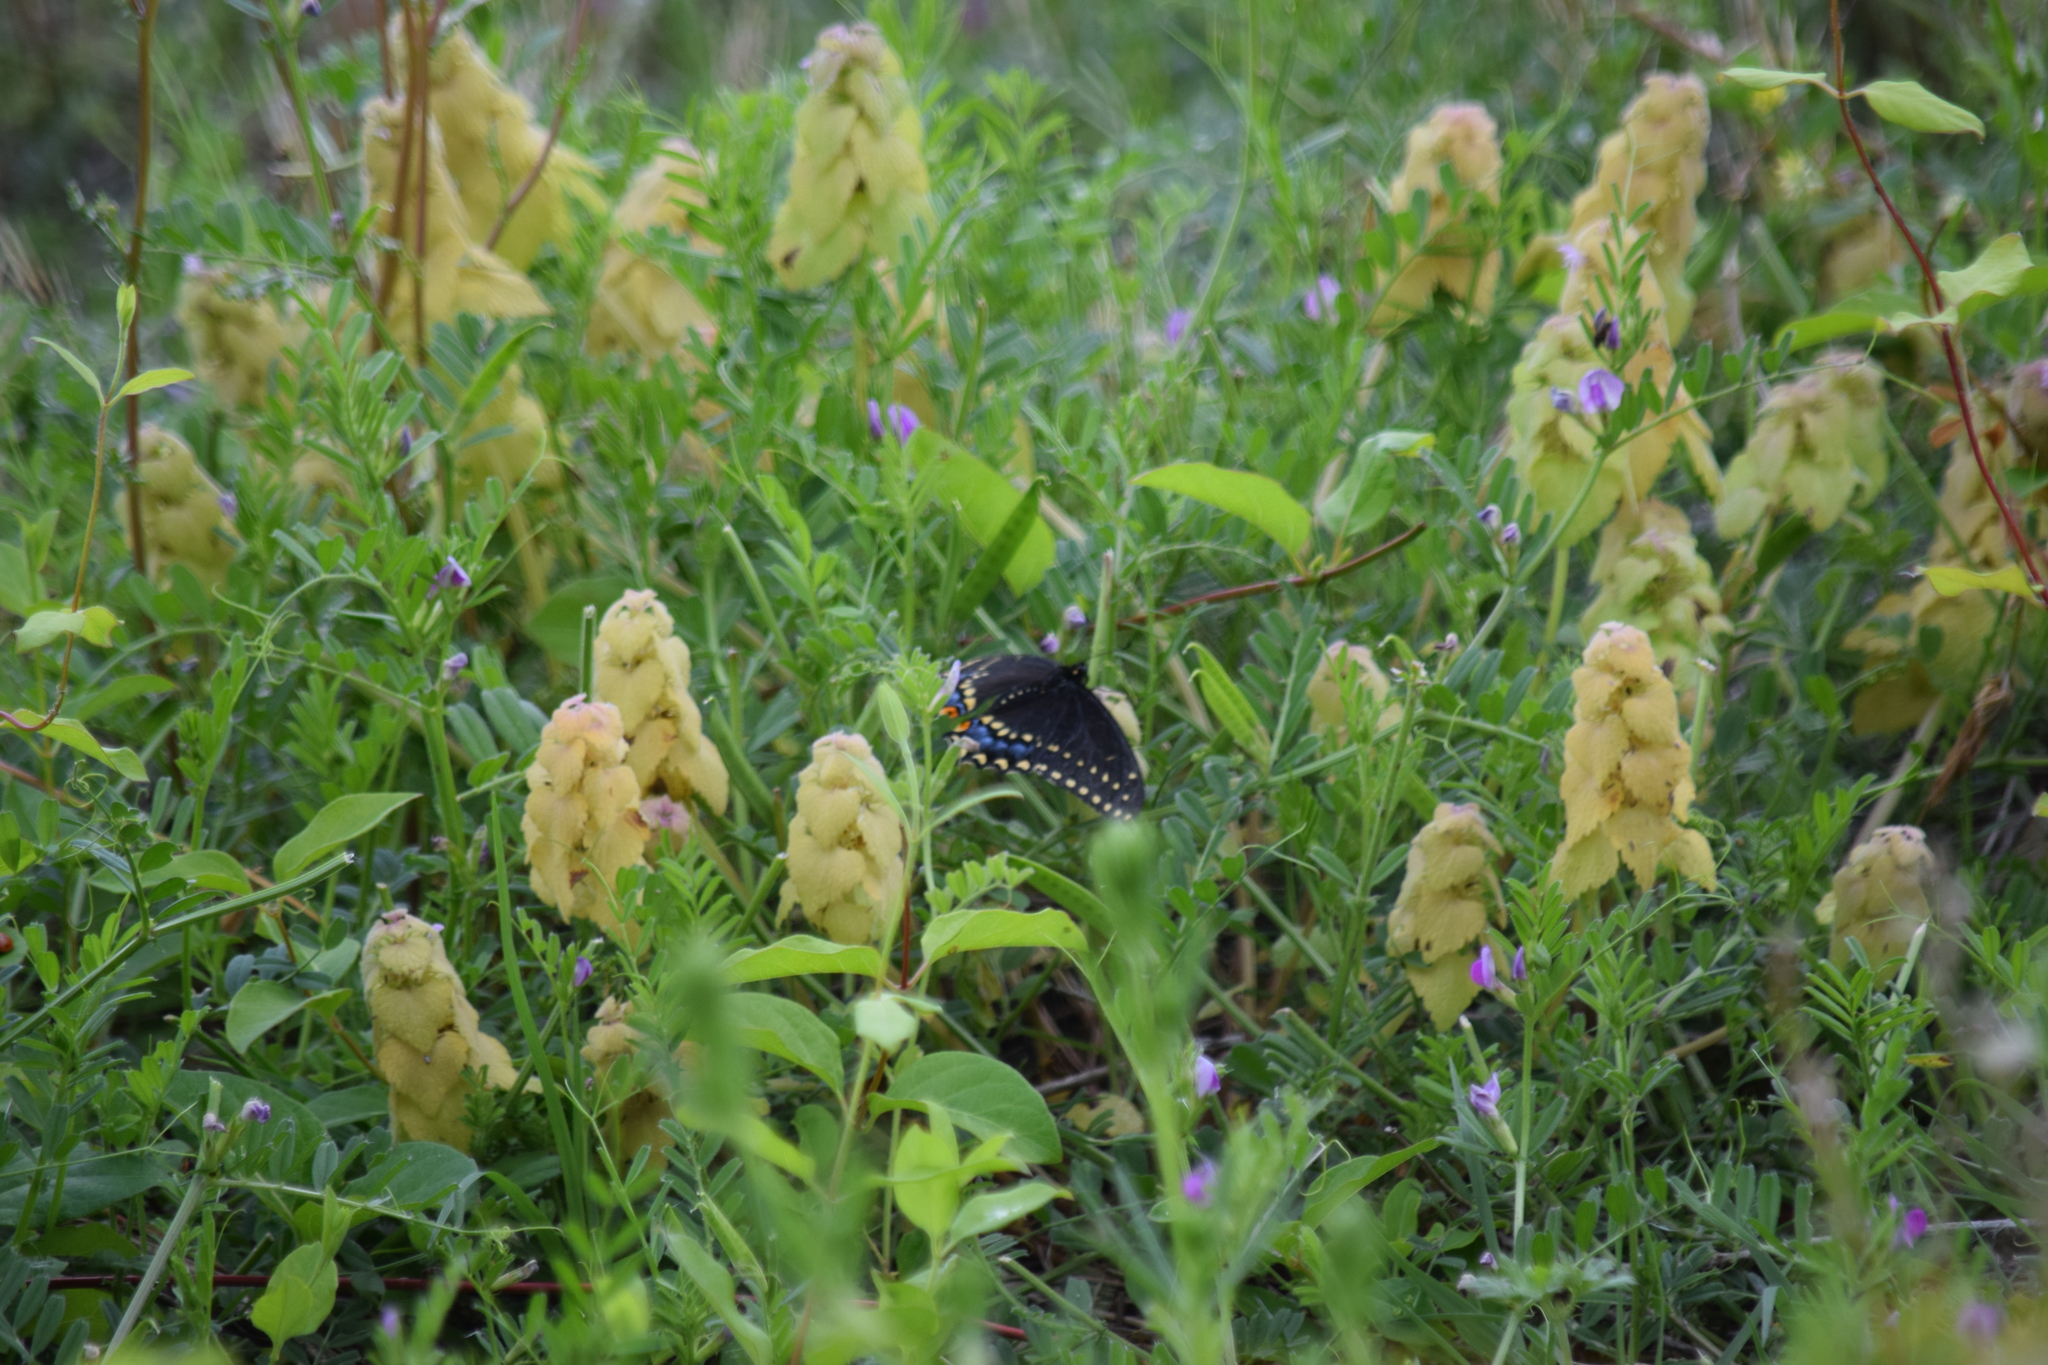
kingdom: Animalia
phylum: Arthropoda
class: Insecta
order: Lepidoptera
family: Papilionidae
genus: Papilio
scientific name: Papilio polyxenes
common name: Black swallowtail
